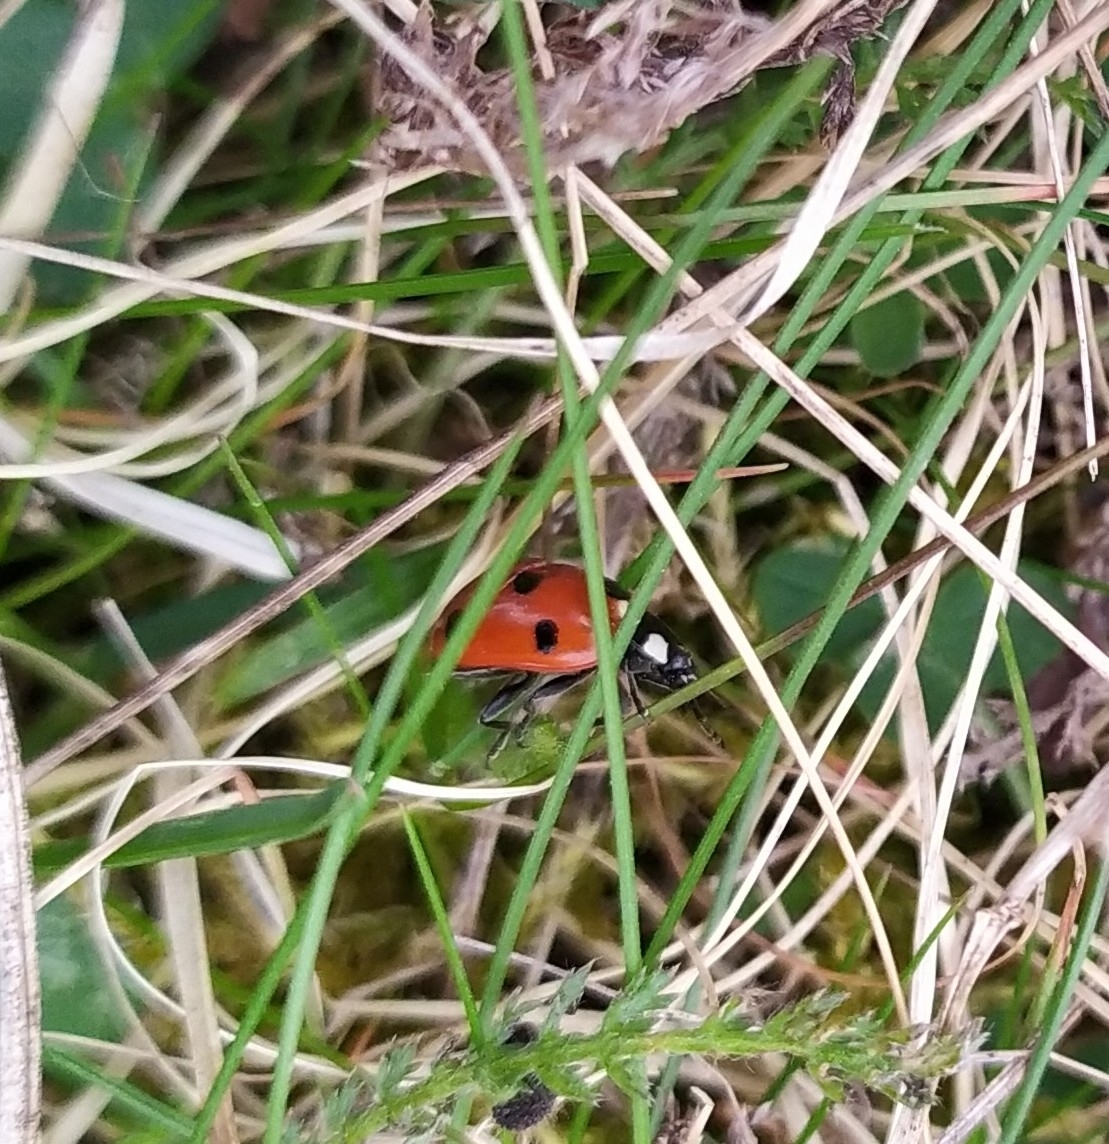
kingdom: Animalia
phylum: Arthropoda
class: Insecta
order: Coleoptera
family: Coccinellidae
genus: Coccinella
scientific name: Coccinella septempunctata
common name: Sevenspotted lady beetle
